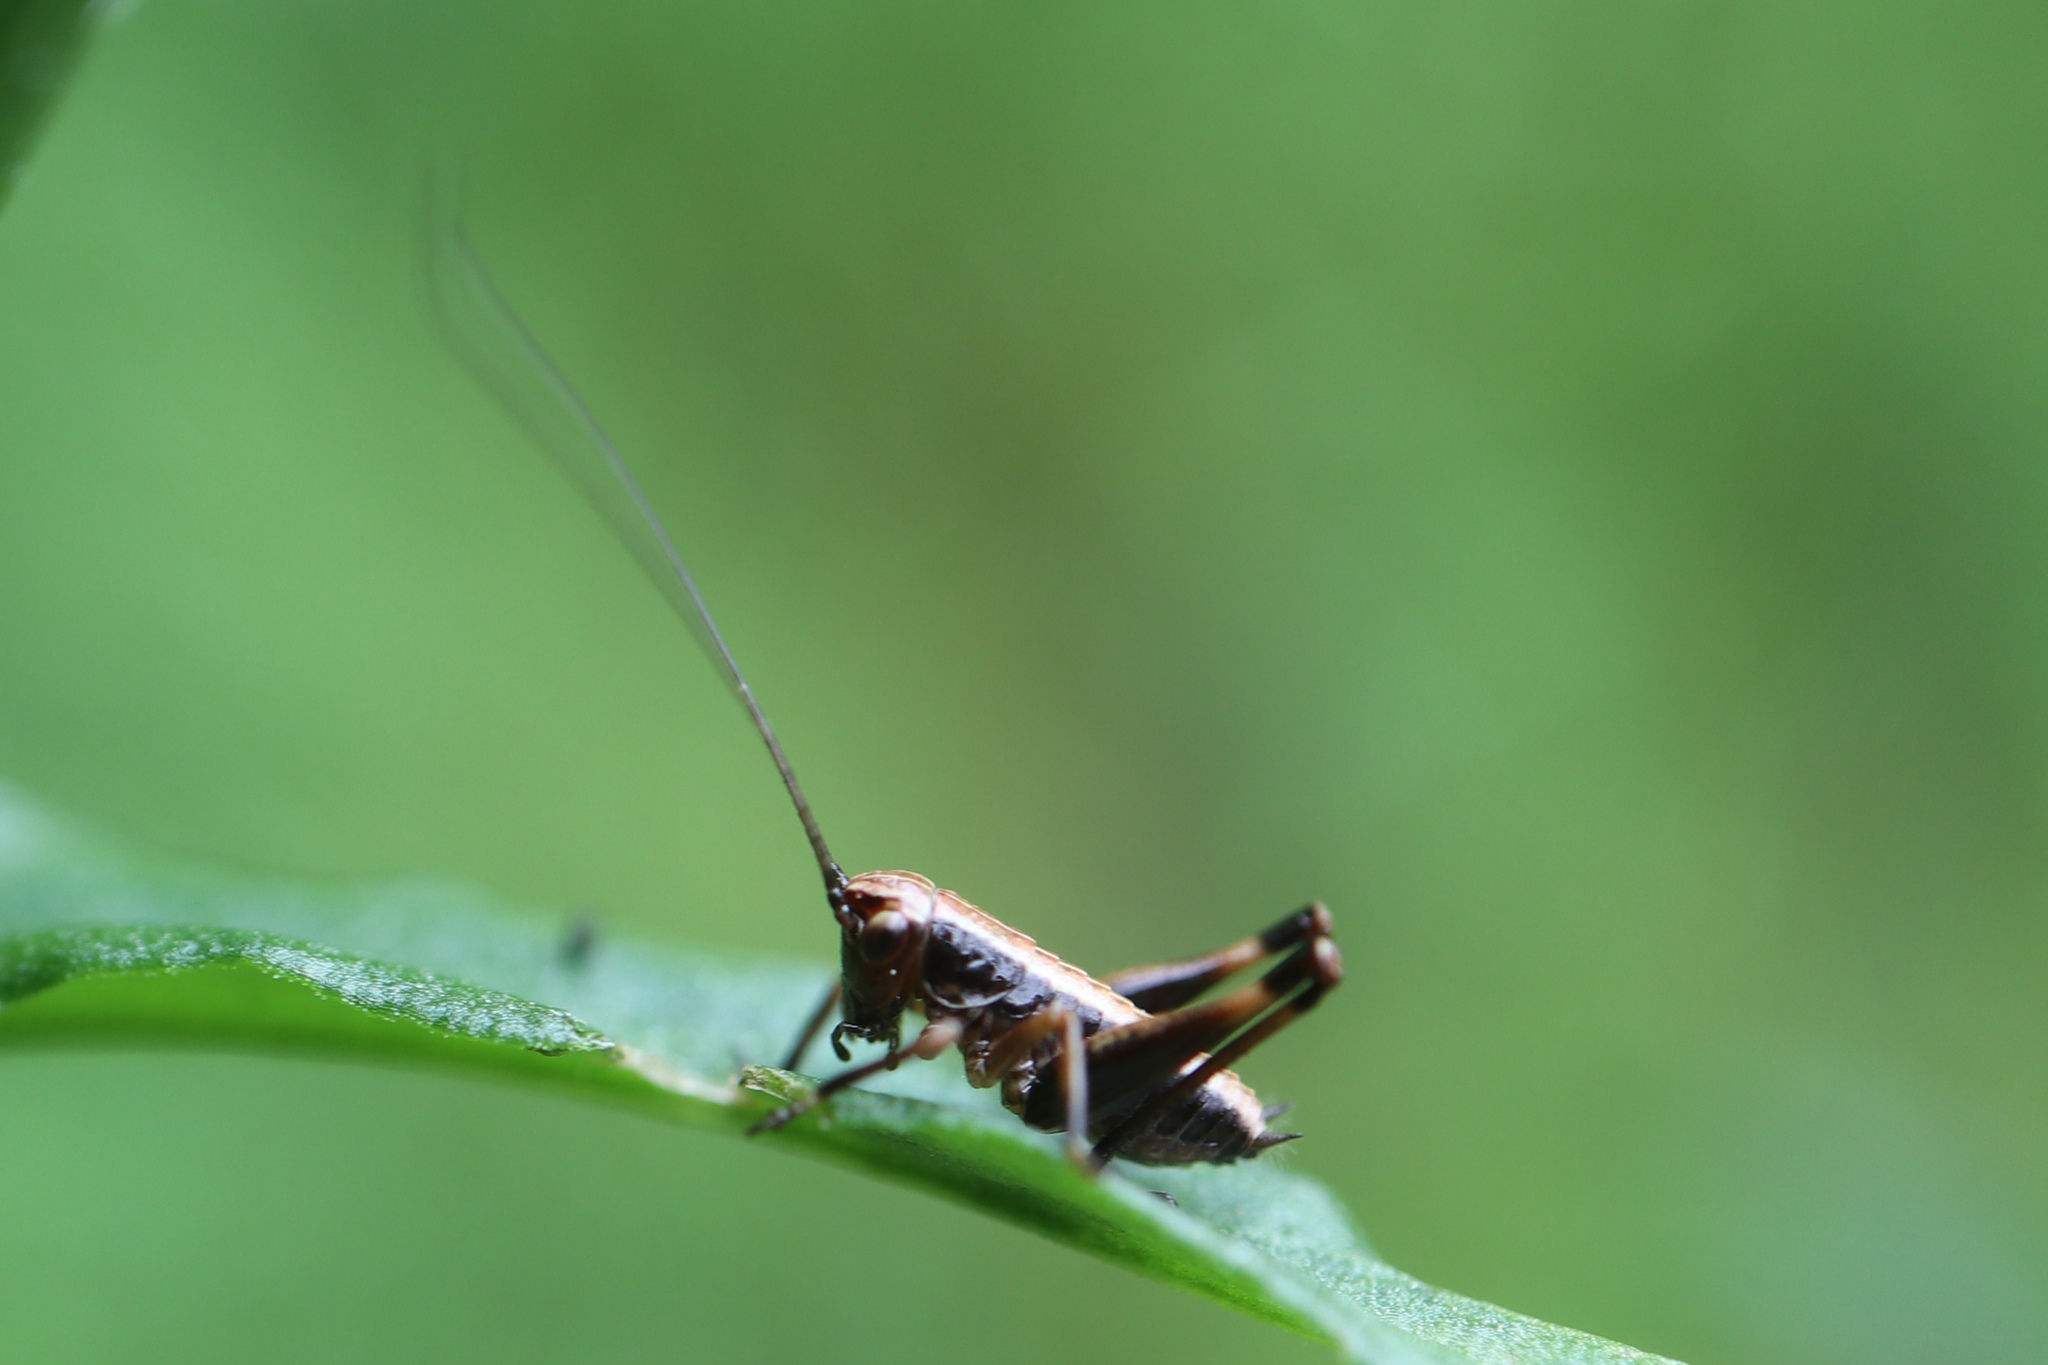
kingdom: Animalia
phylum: Arthropoda
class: Insecta
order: Orthoptera
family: Tettigoniidae
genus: Pholidoptera
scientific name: Pholidoptera griseoaptera
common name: Dark bush-cricket
